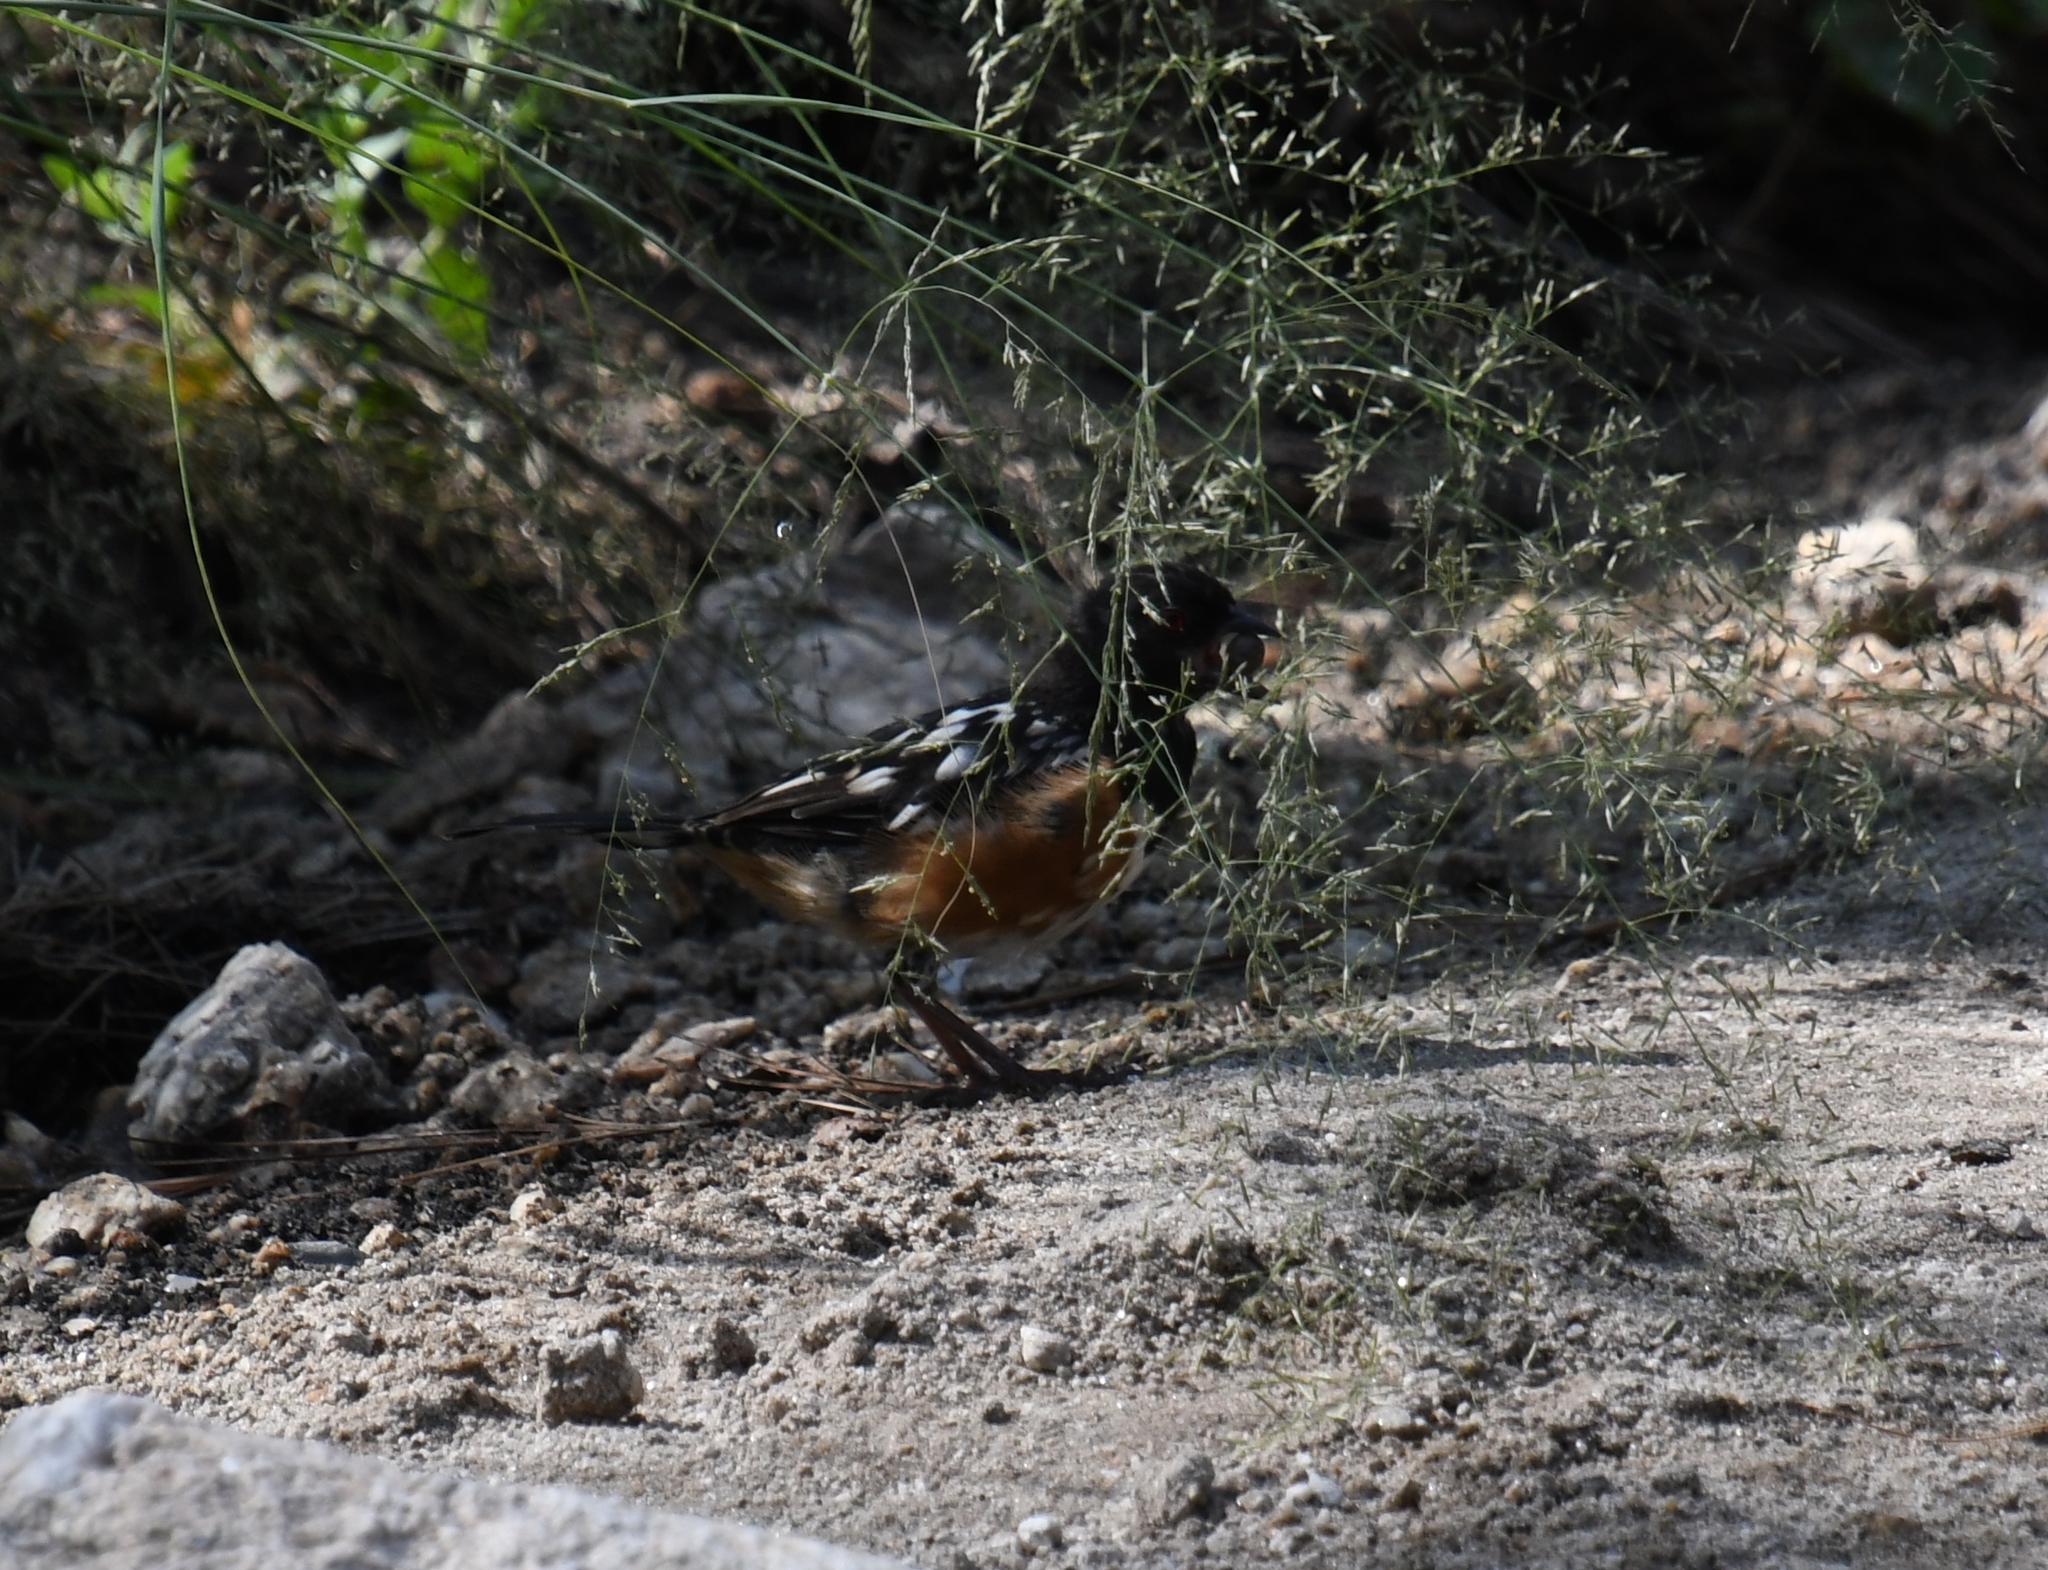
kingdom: Animalia
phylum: Chordata
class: Aves
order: Passeriformes
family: Passerellidae
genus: Pipilo
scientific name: Pipilo maculatus
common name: Spotted towhee
